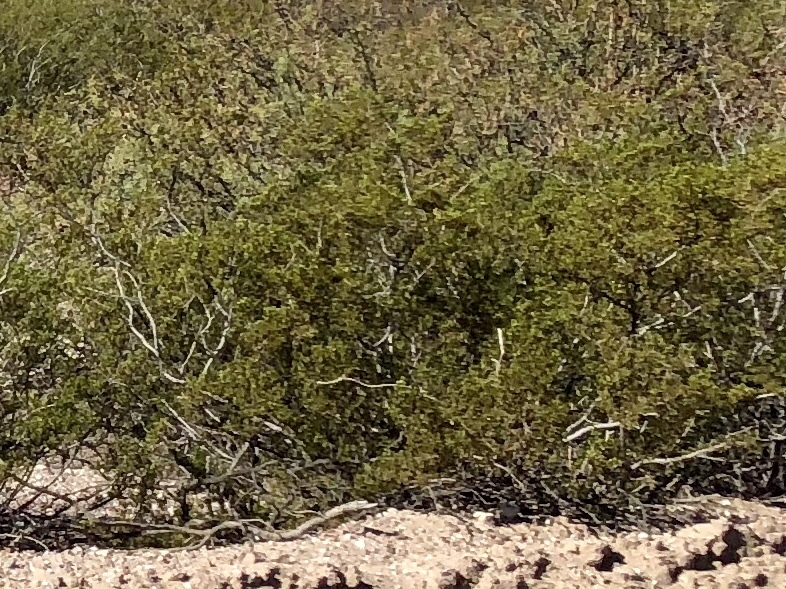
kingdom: Plantae
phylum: Tracheophyta
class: Magnoliopsida
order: Zygophyllales
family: Zygophyllaceae
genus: Larrea
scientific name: Larrea tridentata
